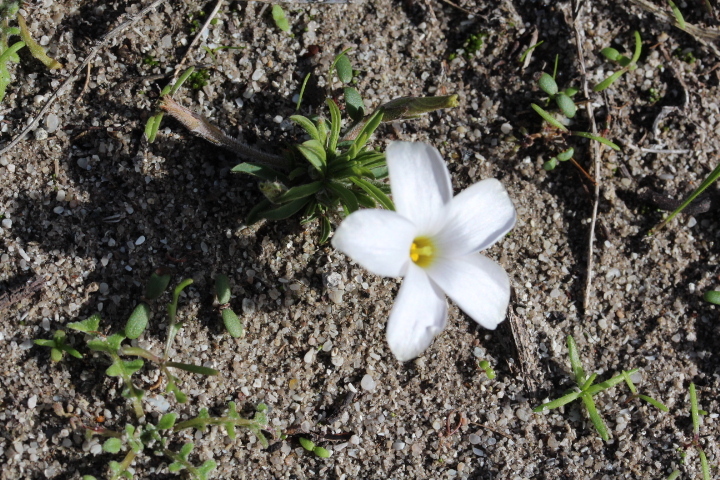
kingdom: Plantae
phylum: Tracheophyta
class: Magnoliopsida
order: Oxalidales
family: Oxalidaceae
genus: Oxalis
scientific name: Oxalis hirta
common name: Tropical woodsorrel
